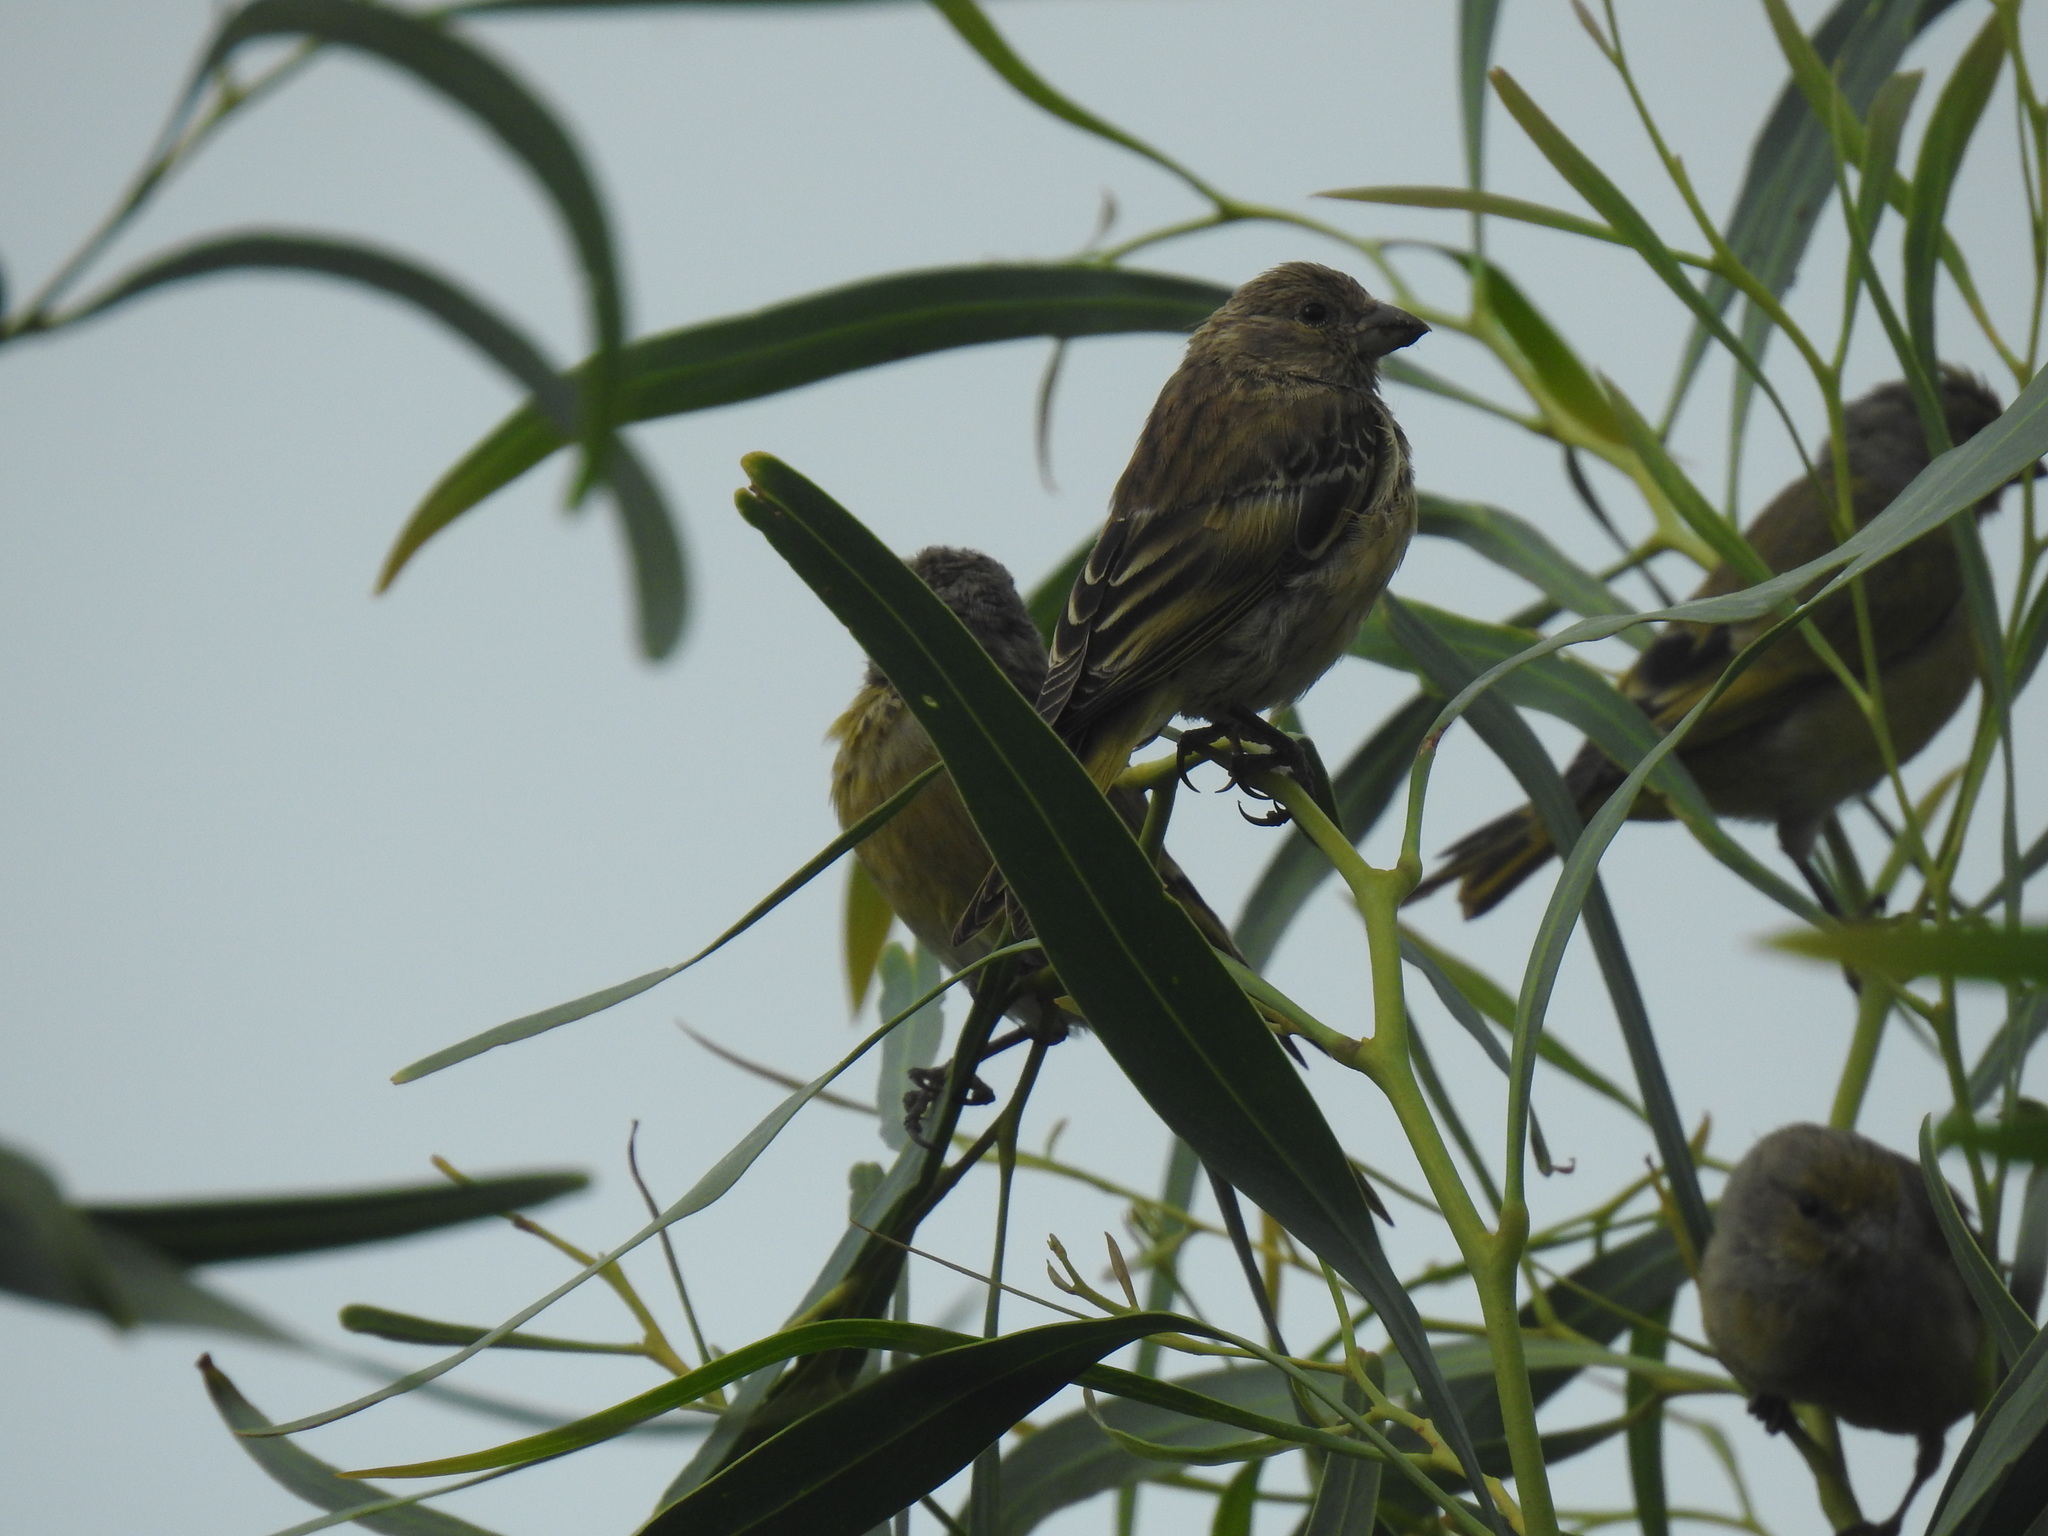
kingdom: Animalia
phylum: Chordata
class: Aves
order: Passeriformes
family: Fringillidae
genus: Serinus
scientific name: Serinus canicollis
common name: Cape canary
